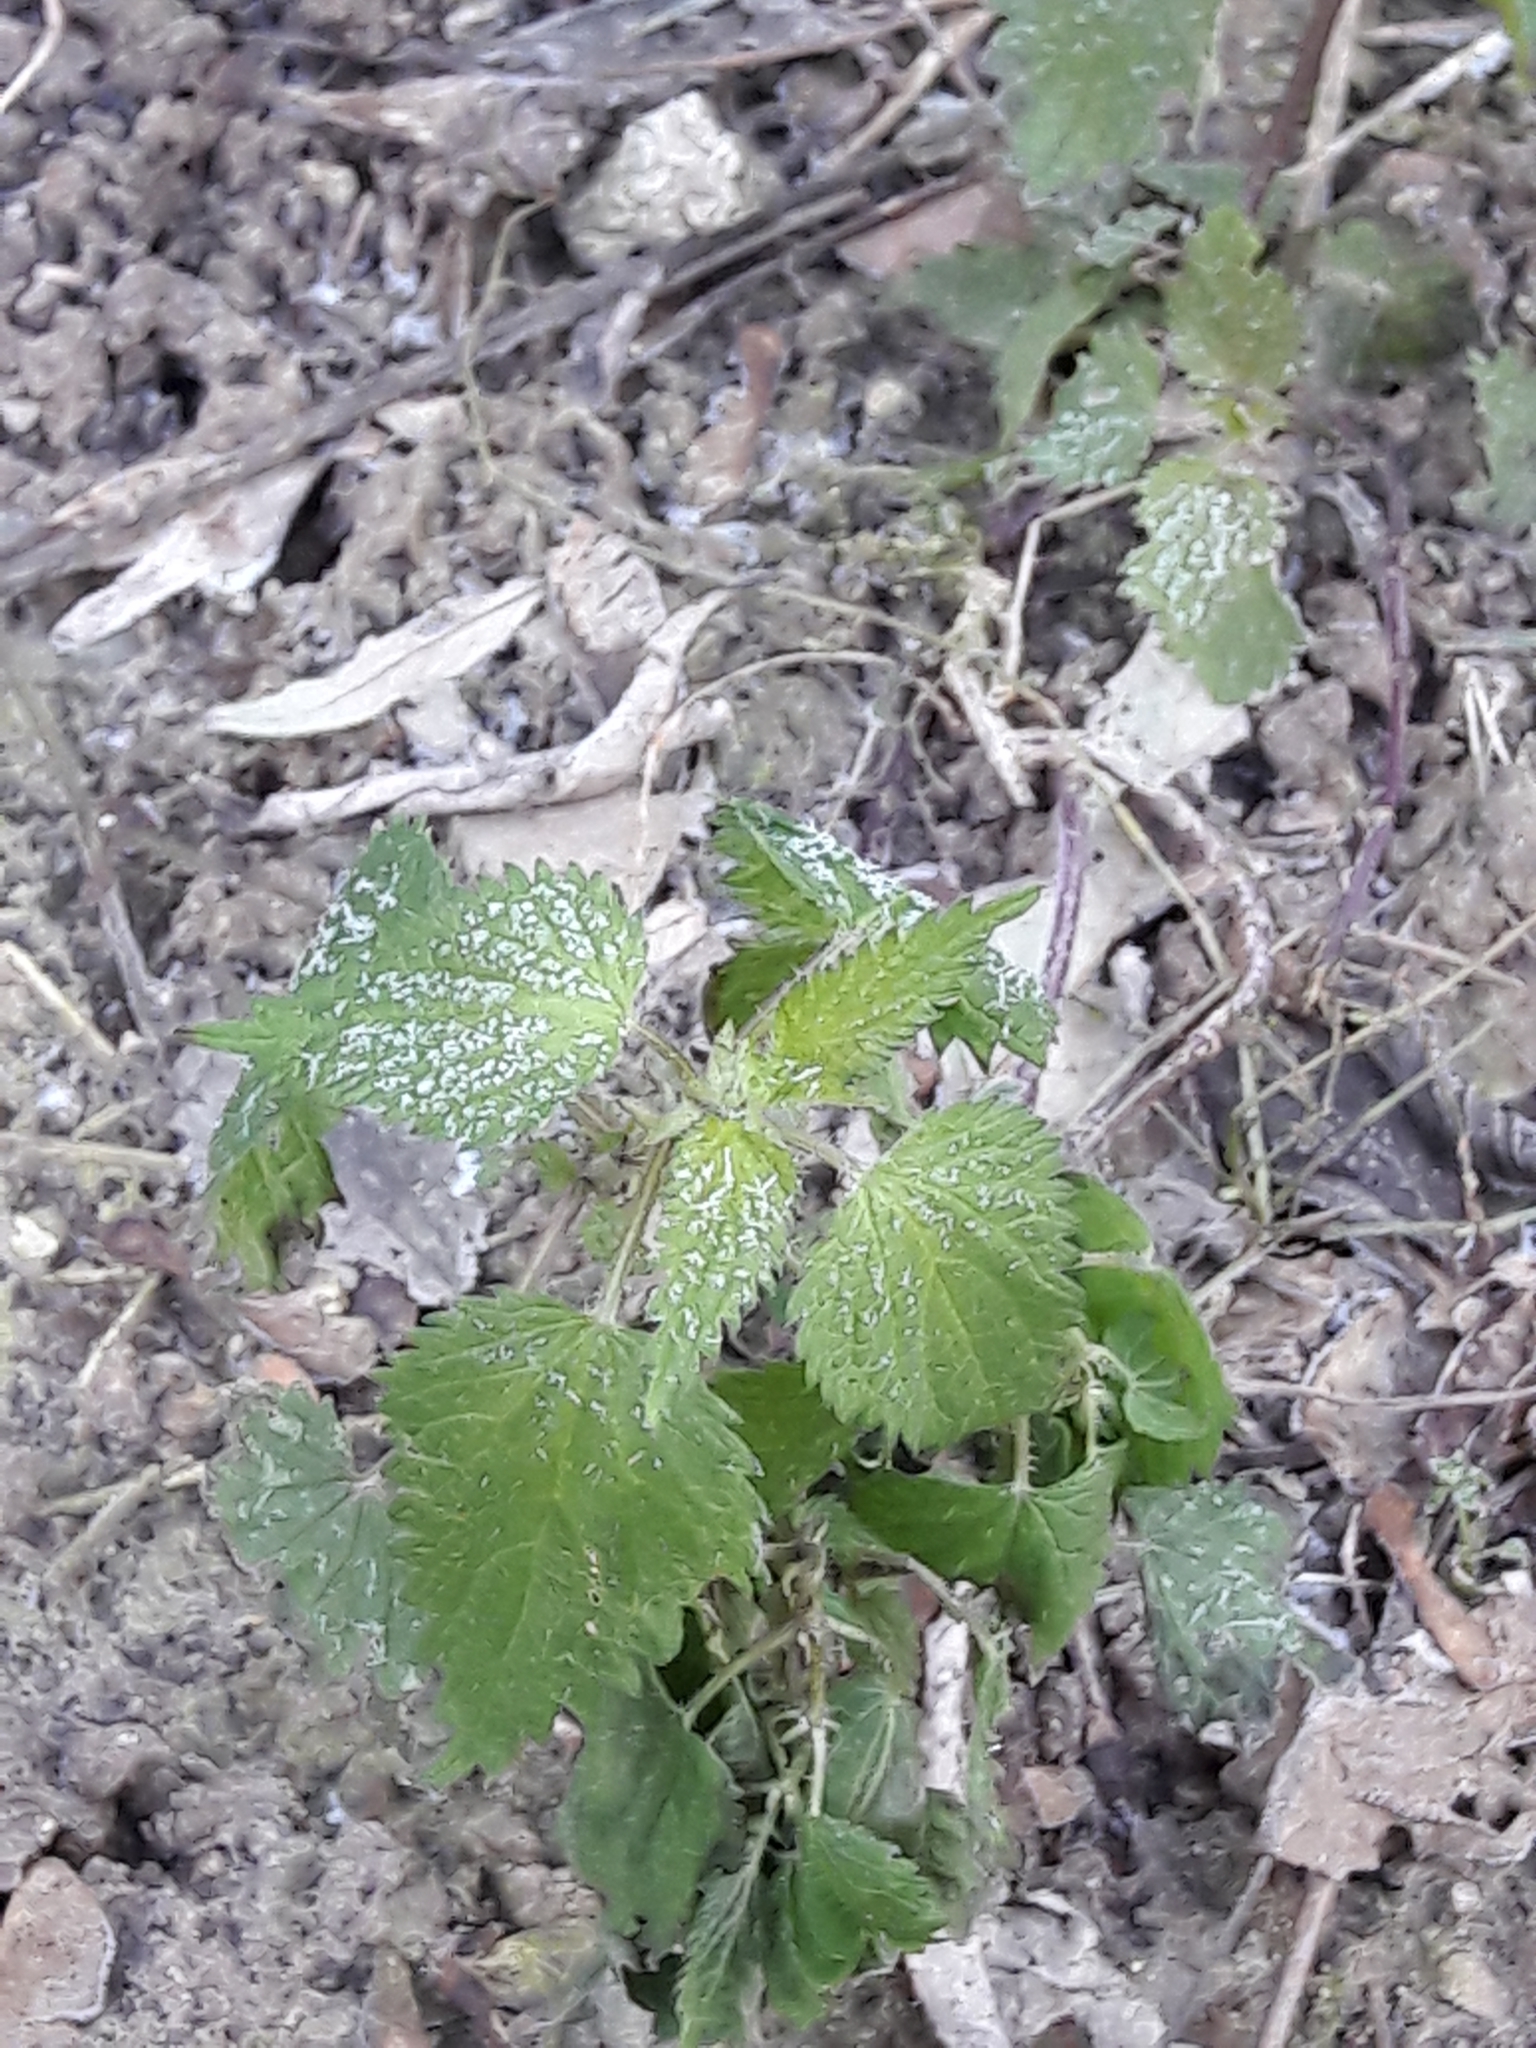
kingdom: Plantae
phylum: Tracheophyta
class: Magnoliopsida
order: Rosales
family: Urticaceae
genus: Urtica
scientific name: Urtica dioica
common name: Common nettle
